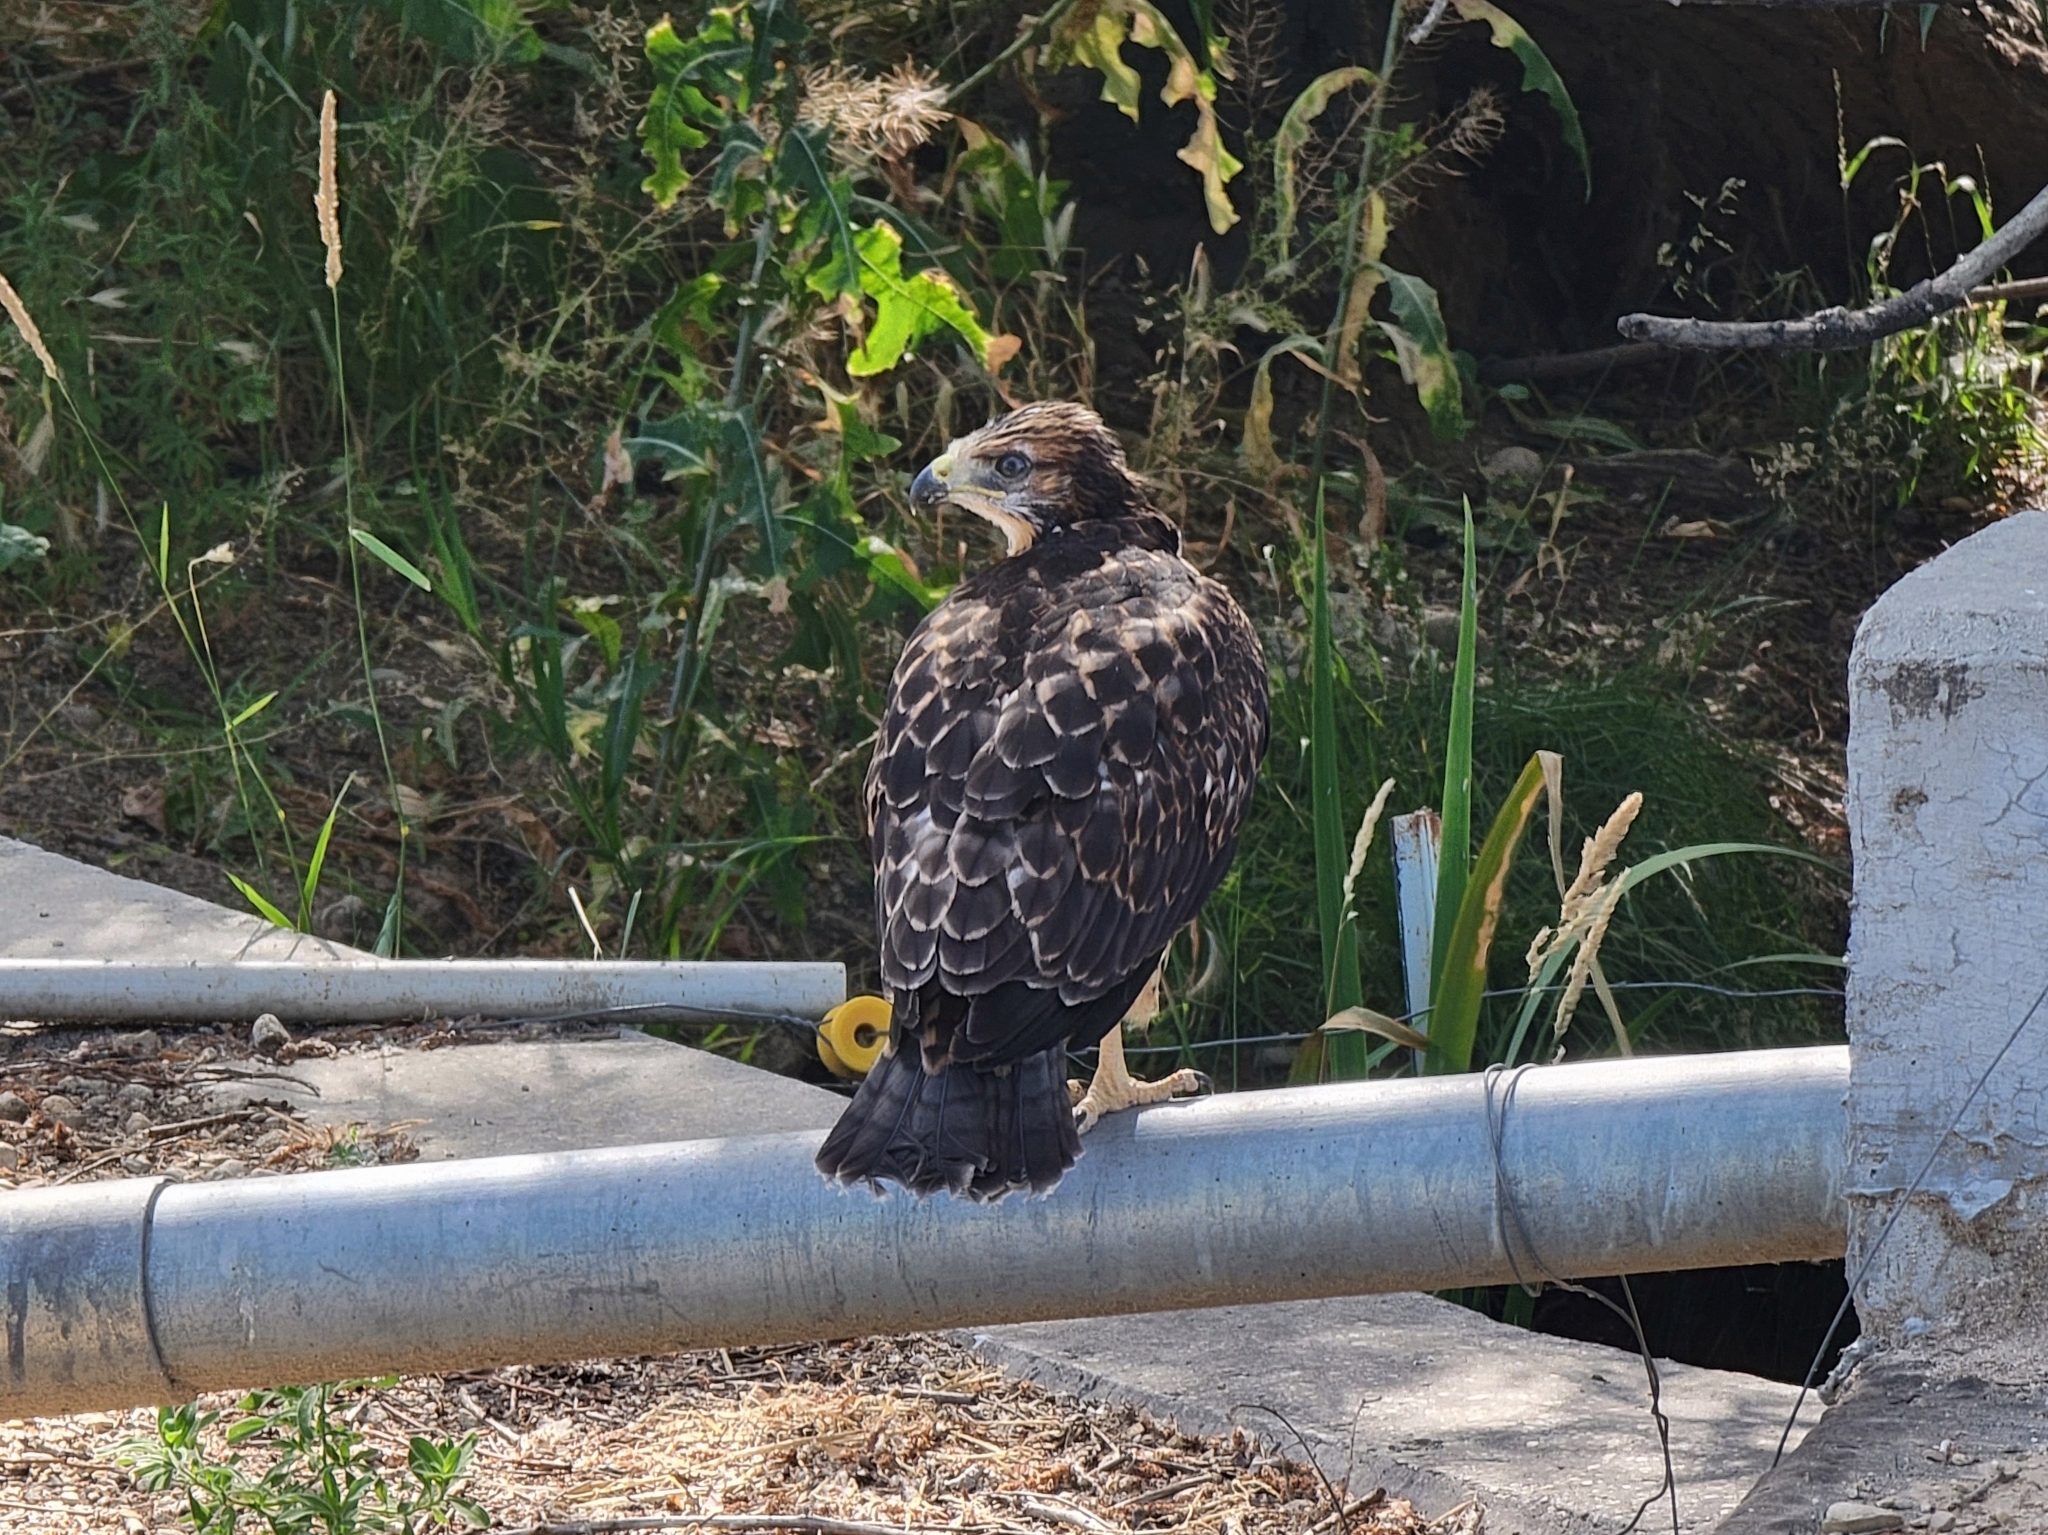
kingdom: Animalia
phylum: Chordata
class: Aves
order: Accipitriformes
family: Accipitridae
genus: Buteo
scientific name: Buteo jamaicensis
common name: Red-tailed hawk
